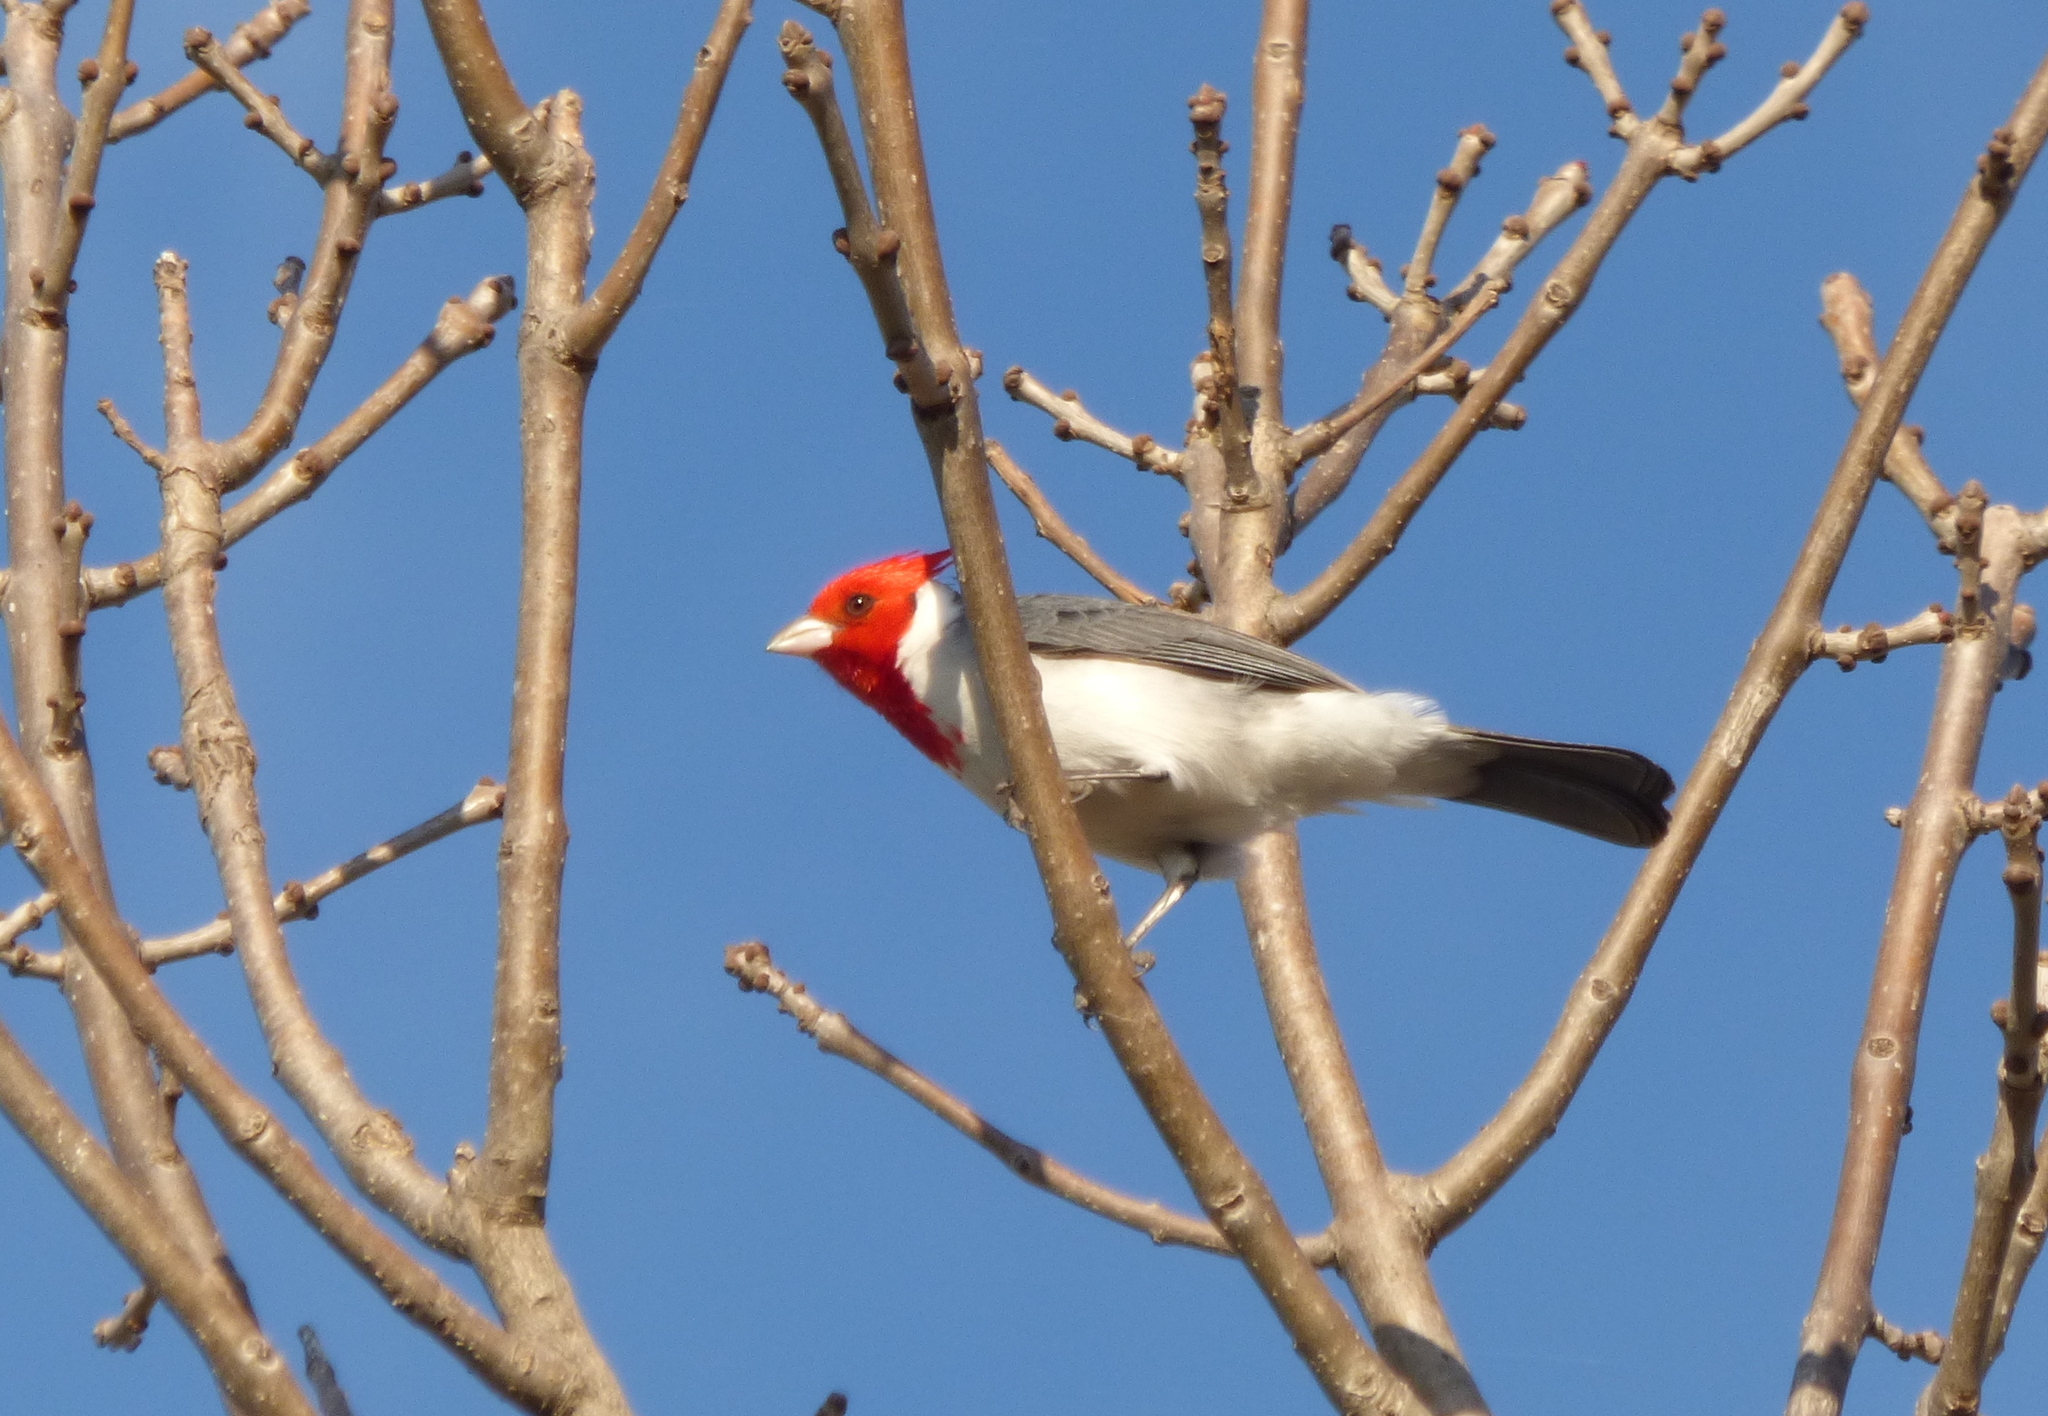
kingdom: Animalia
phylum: Chordata
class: Aves
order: Passeriformes
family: Thraupidae
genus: Paroaria
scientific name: Paroaria coronata
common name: Red-crested cardinal
